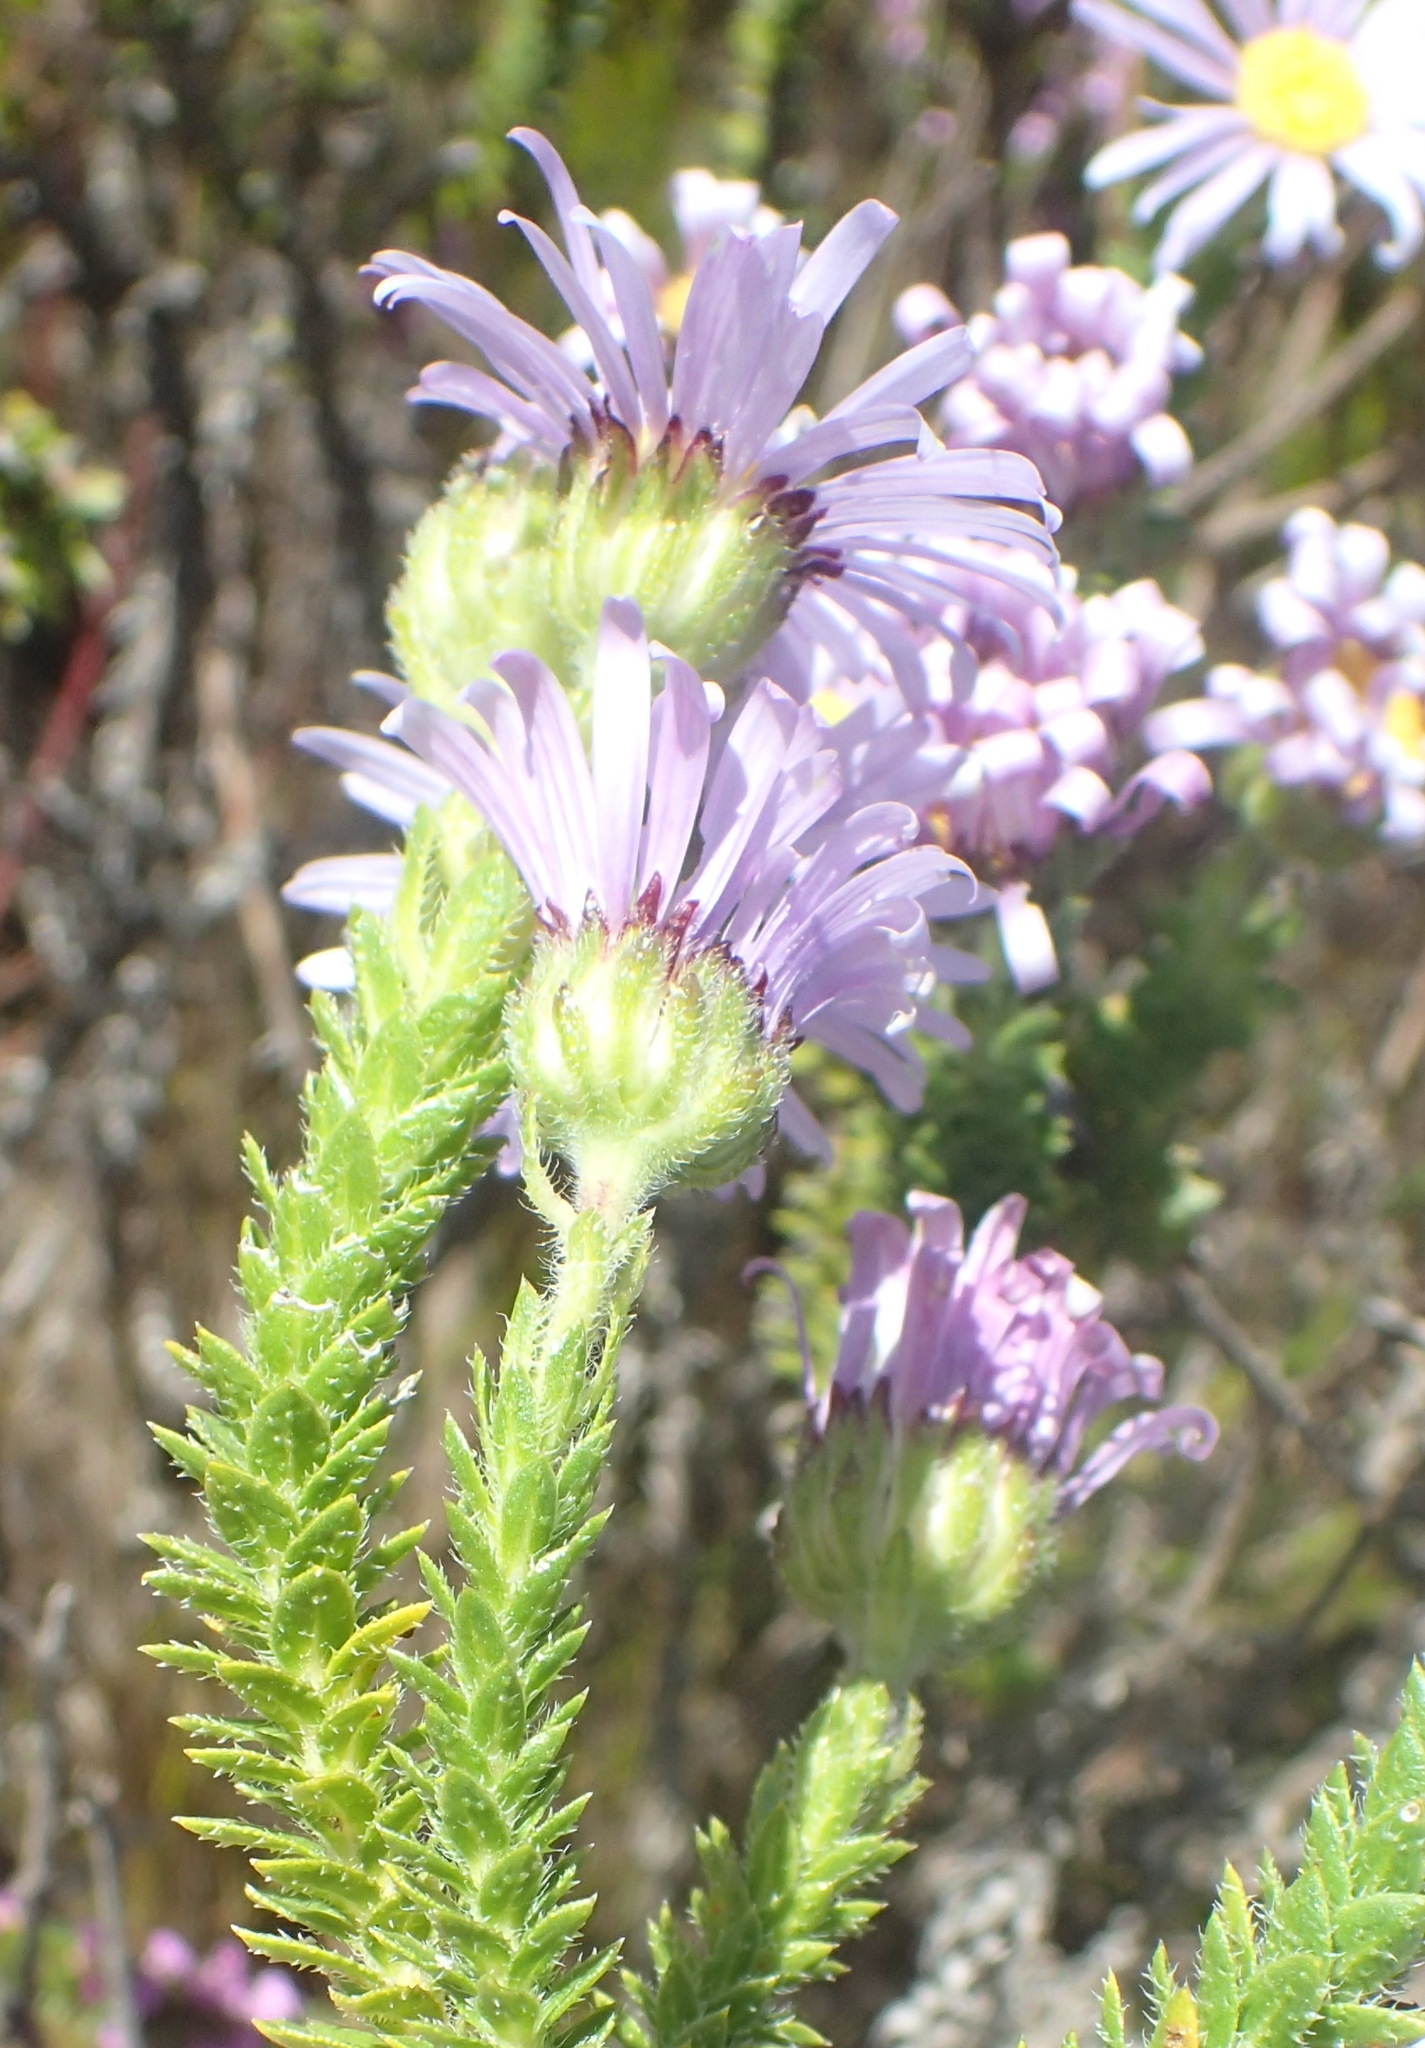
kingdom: Plantae
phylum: Tracheophyta
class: Magnoliopsida
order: Asterales
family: Asteraceae
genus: Felicia
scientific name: Felicia echinata
